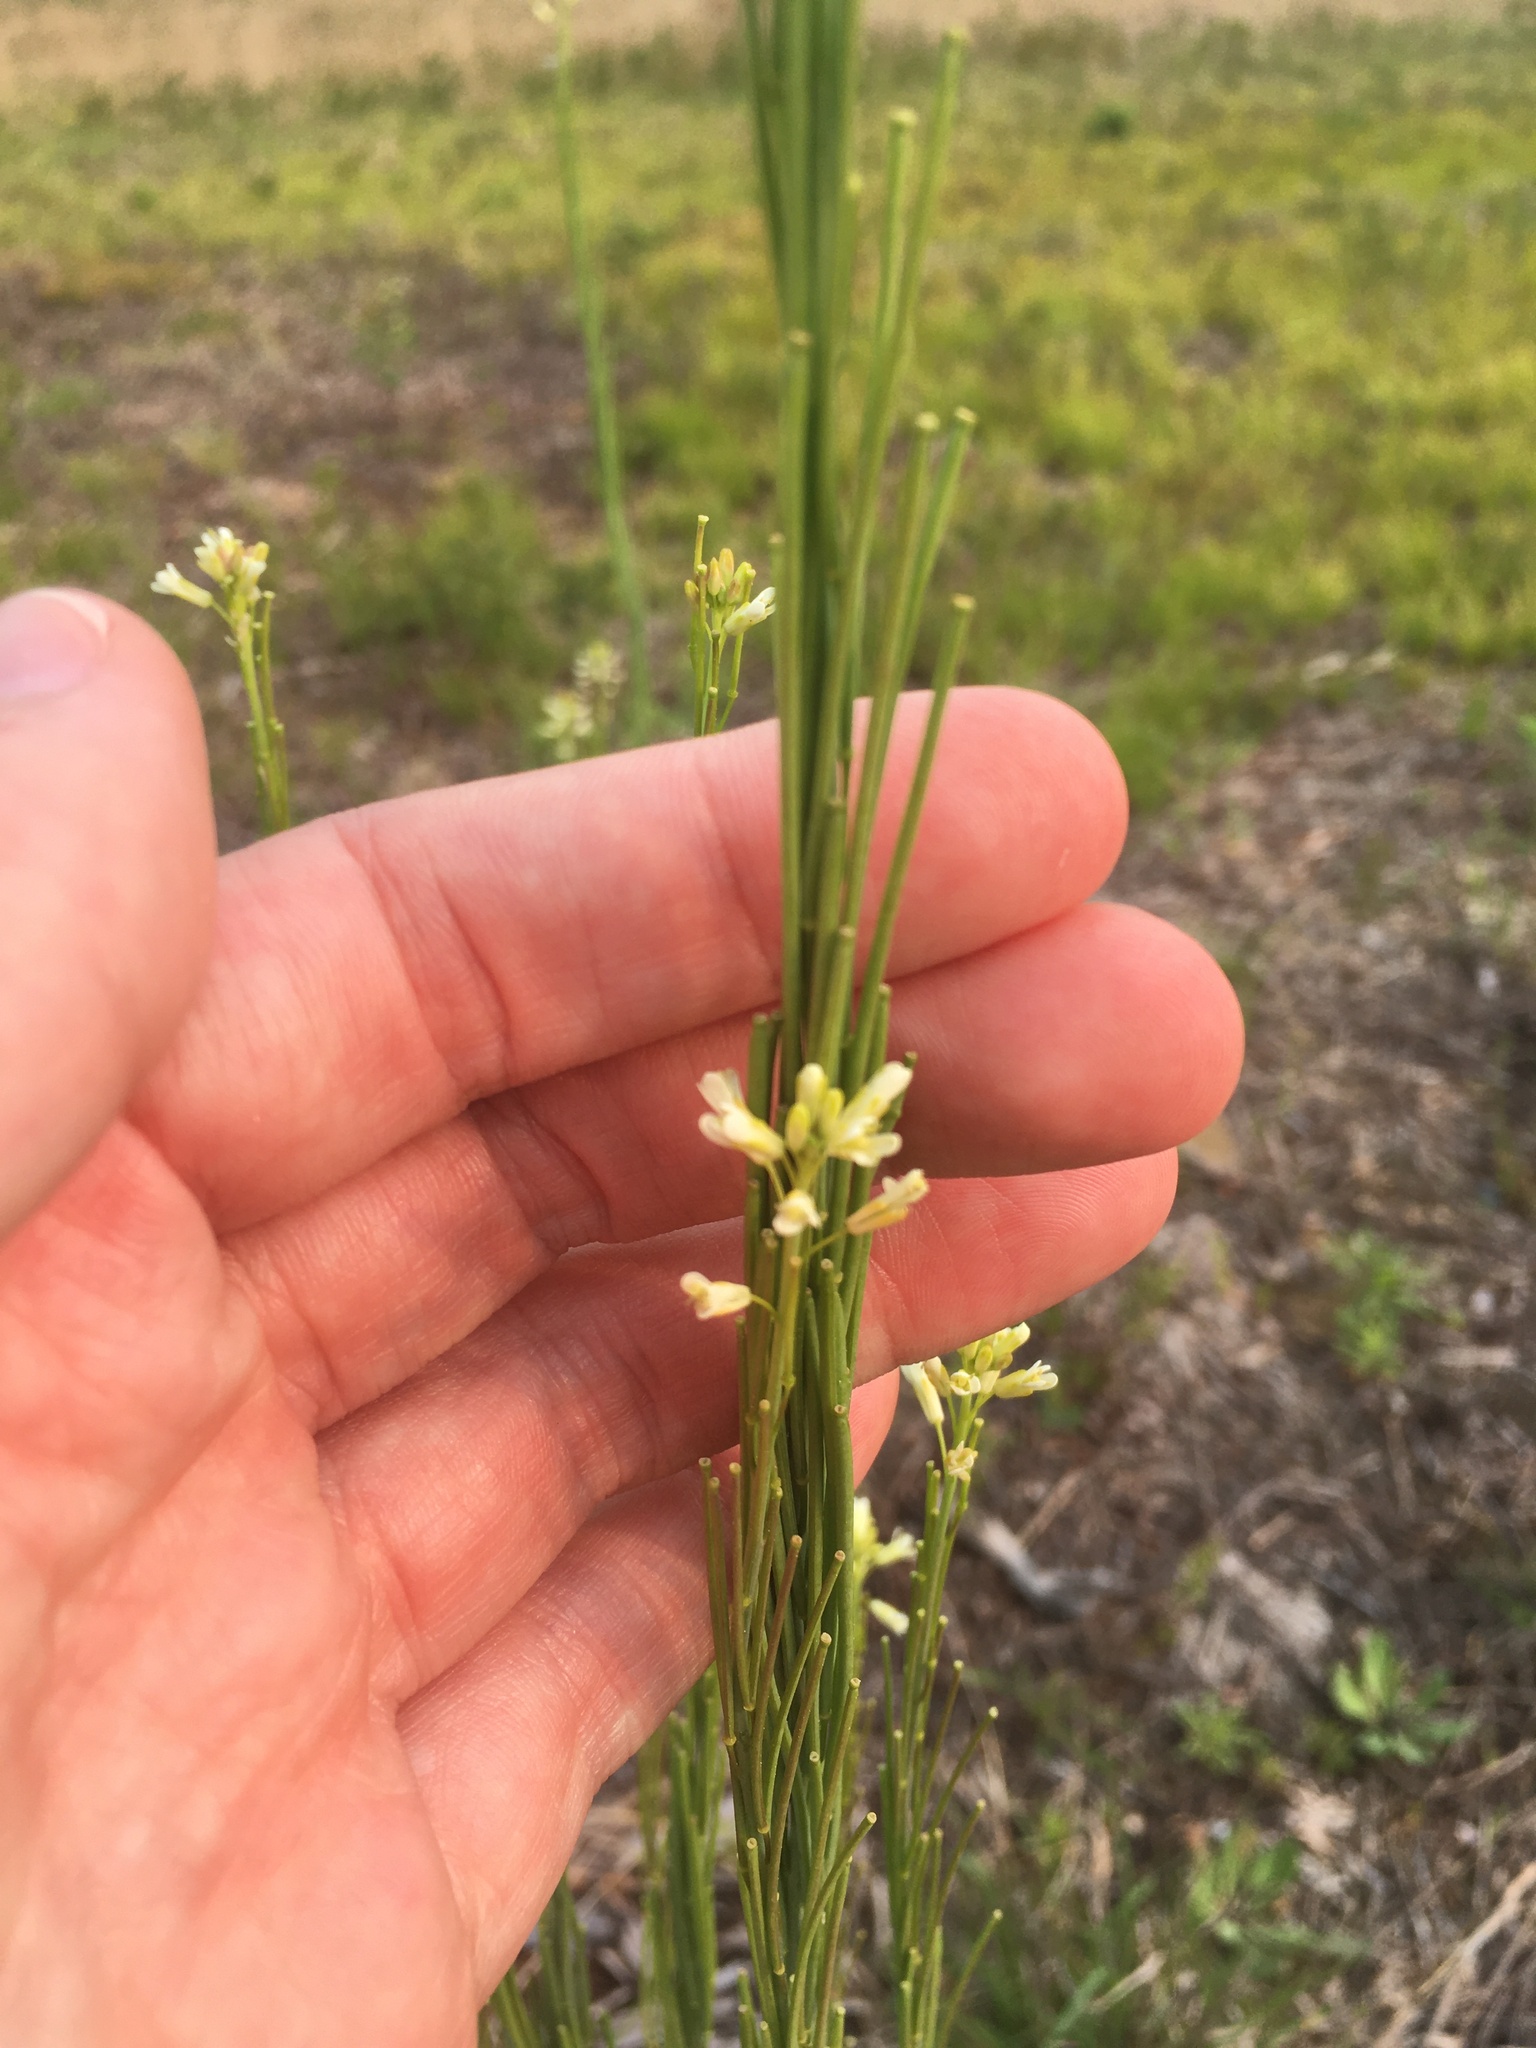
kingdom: Plantae
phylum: Tracheophyta
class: Magnoliopsida
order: Brassicales
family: Brassicaceae
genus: Turritis
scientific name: Turritis glabra
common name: Tower rockcress
